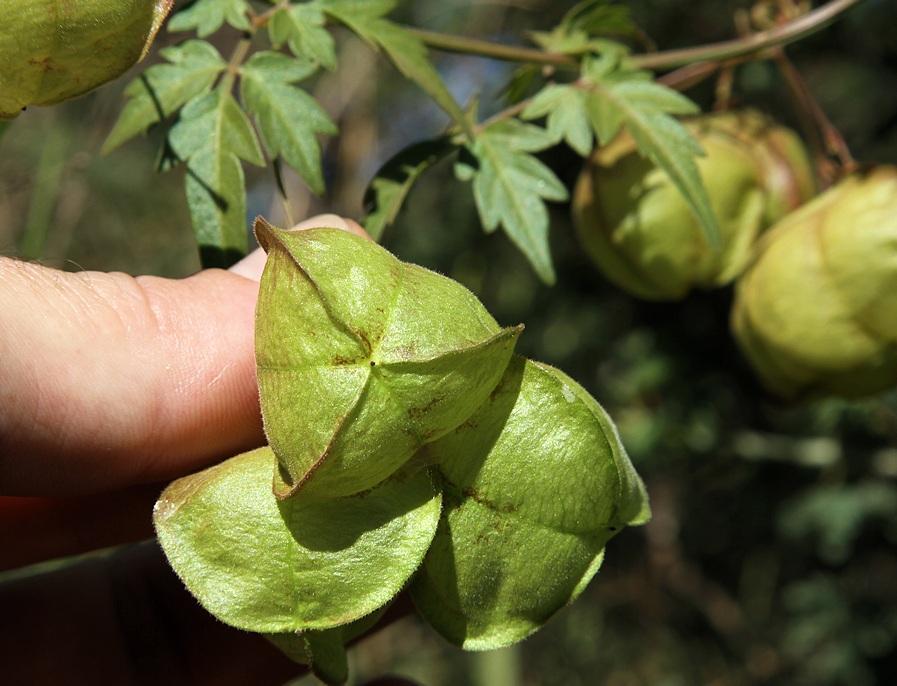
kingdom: Plantae
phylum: Tracheophyta
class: Magnoliopsida
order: Sapindales
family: Sapindaceae
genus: Cardiospermum
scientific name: Cardiospermum halicacabum
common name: Balloon vine
